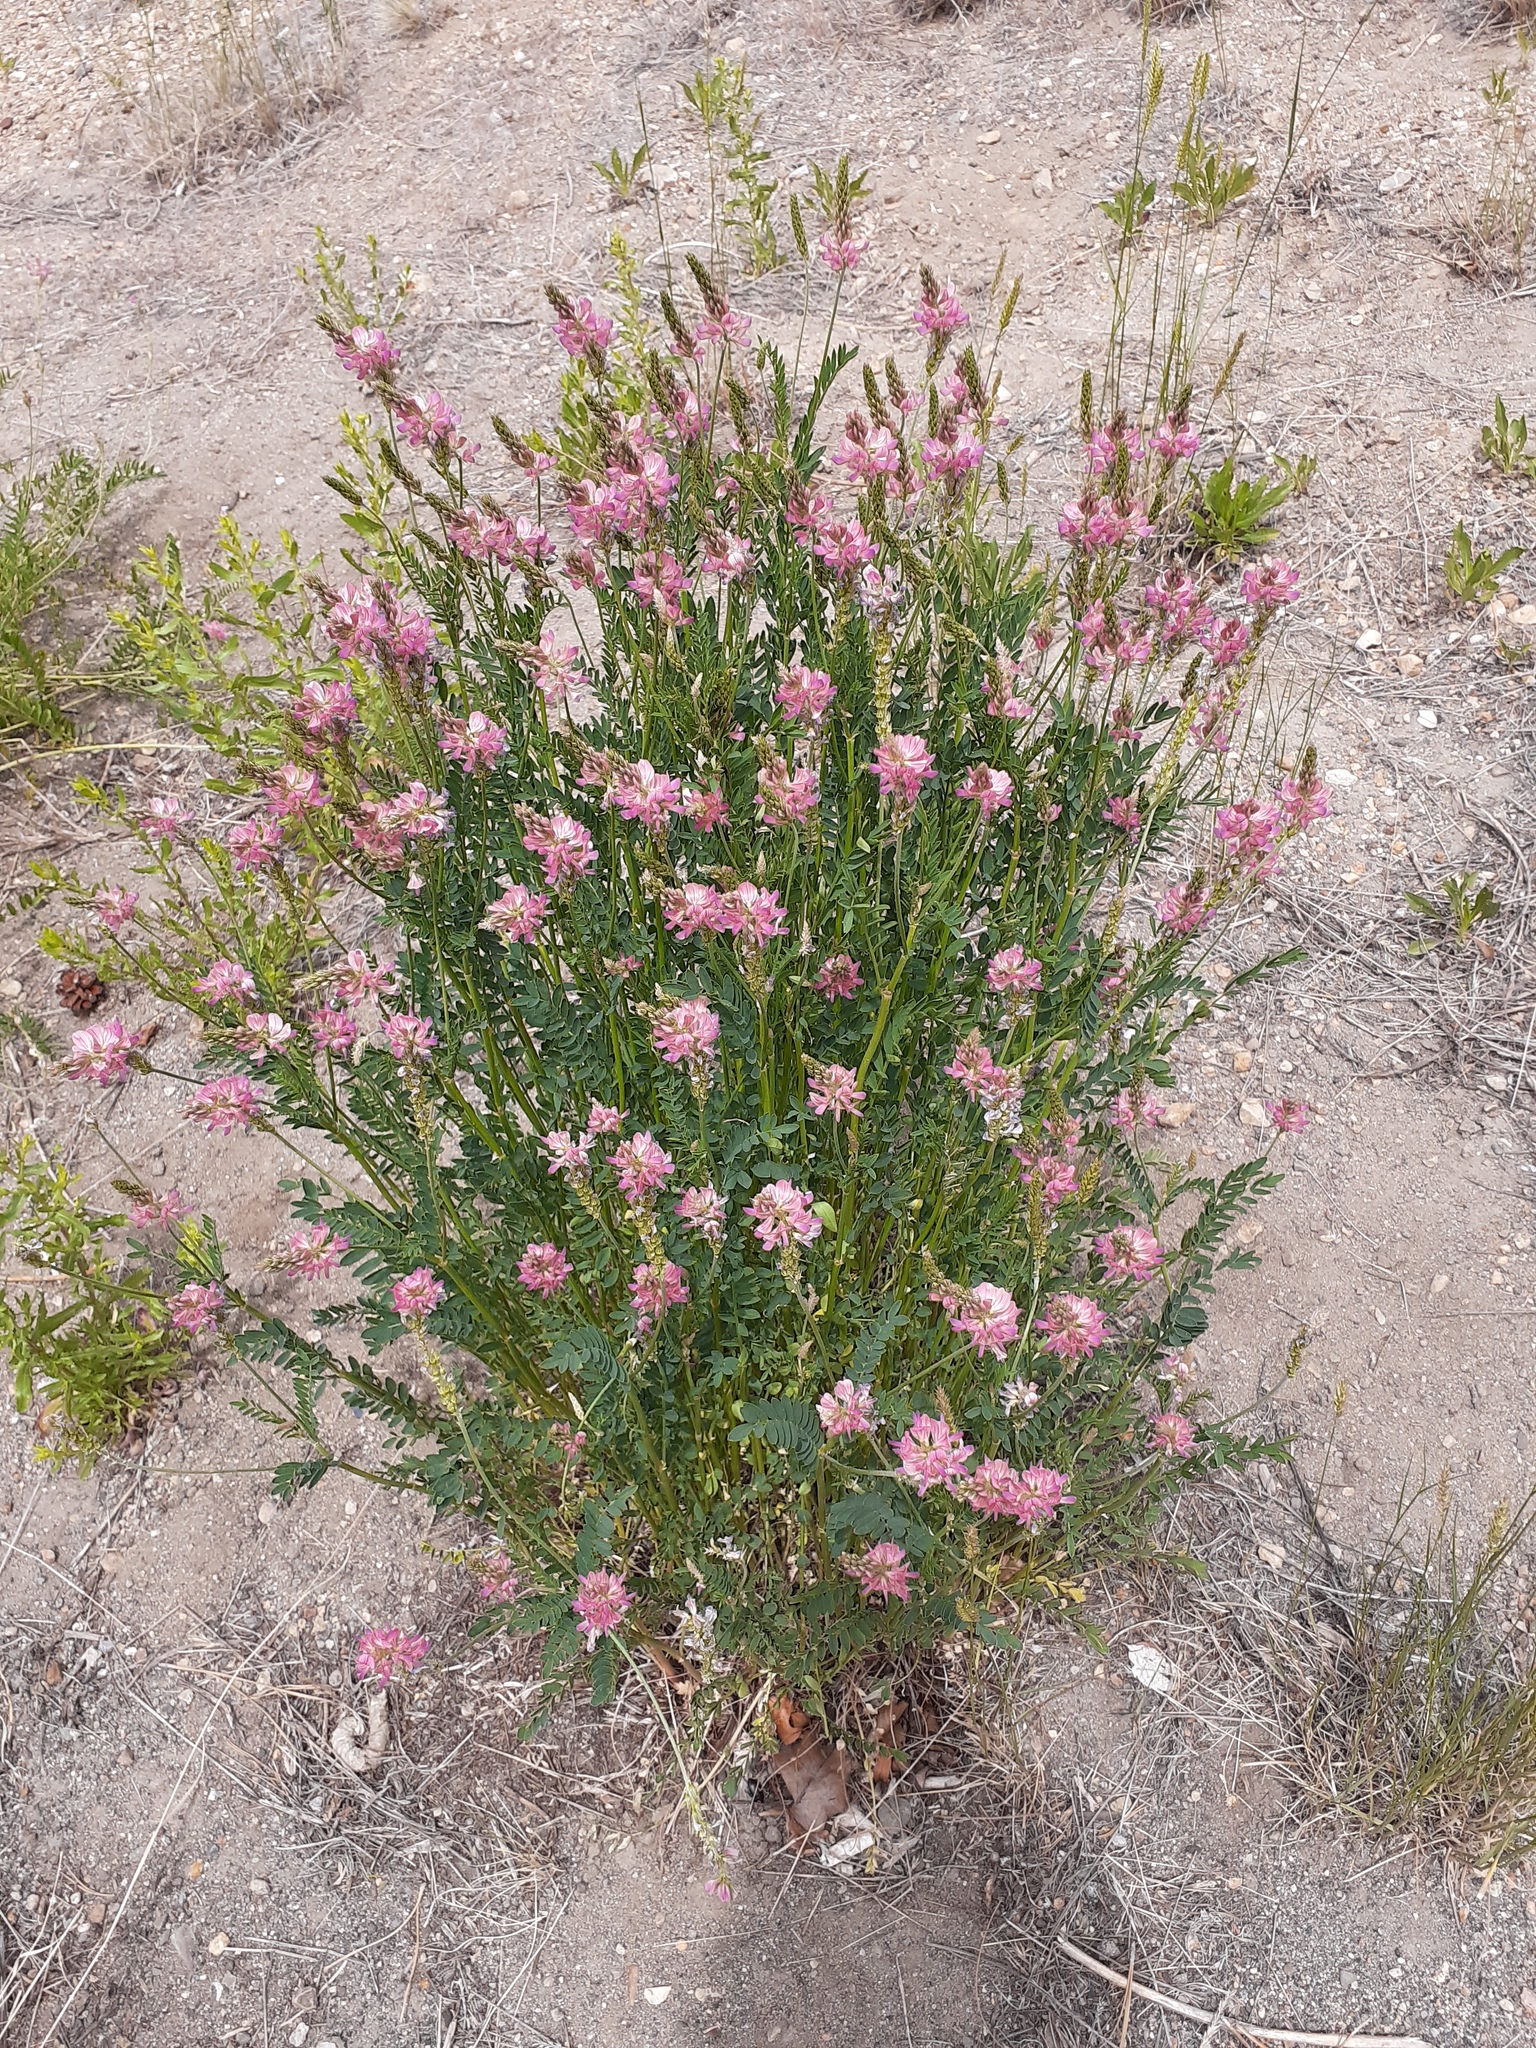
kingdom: Plantae
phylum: Tracheophyta
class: Magnoliopsida
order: Fabales
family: Fabaceae
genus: Onobrychis
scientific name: Onobrychis viciifolia
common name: Sainfoin
